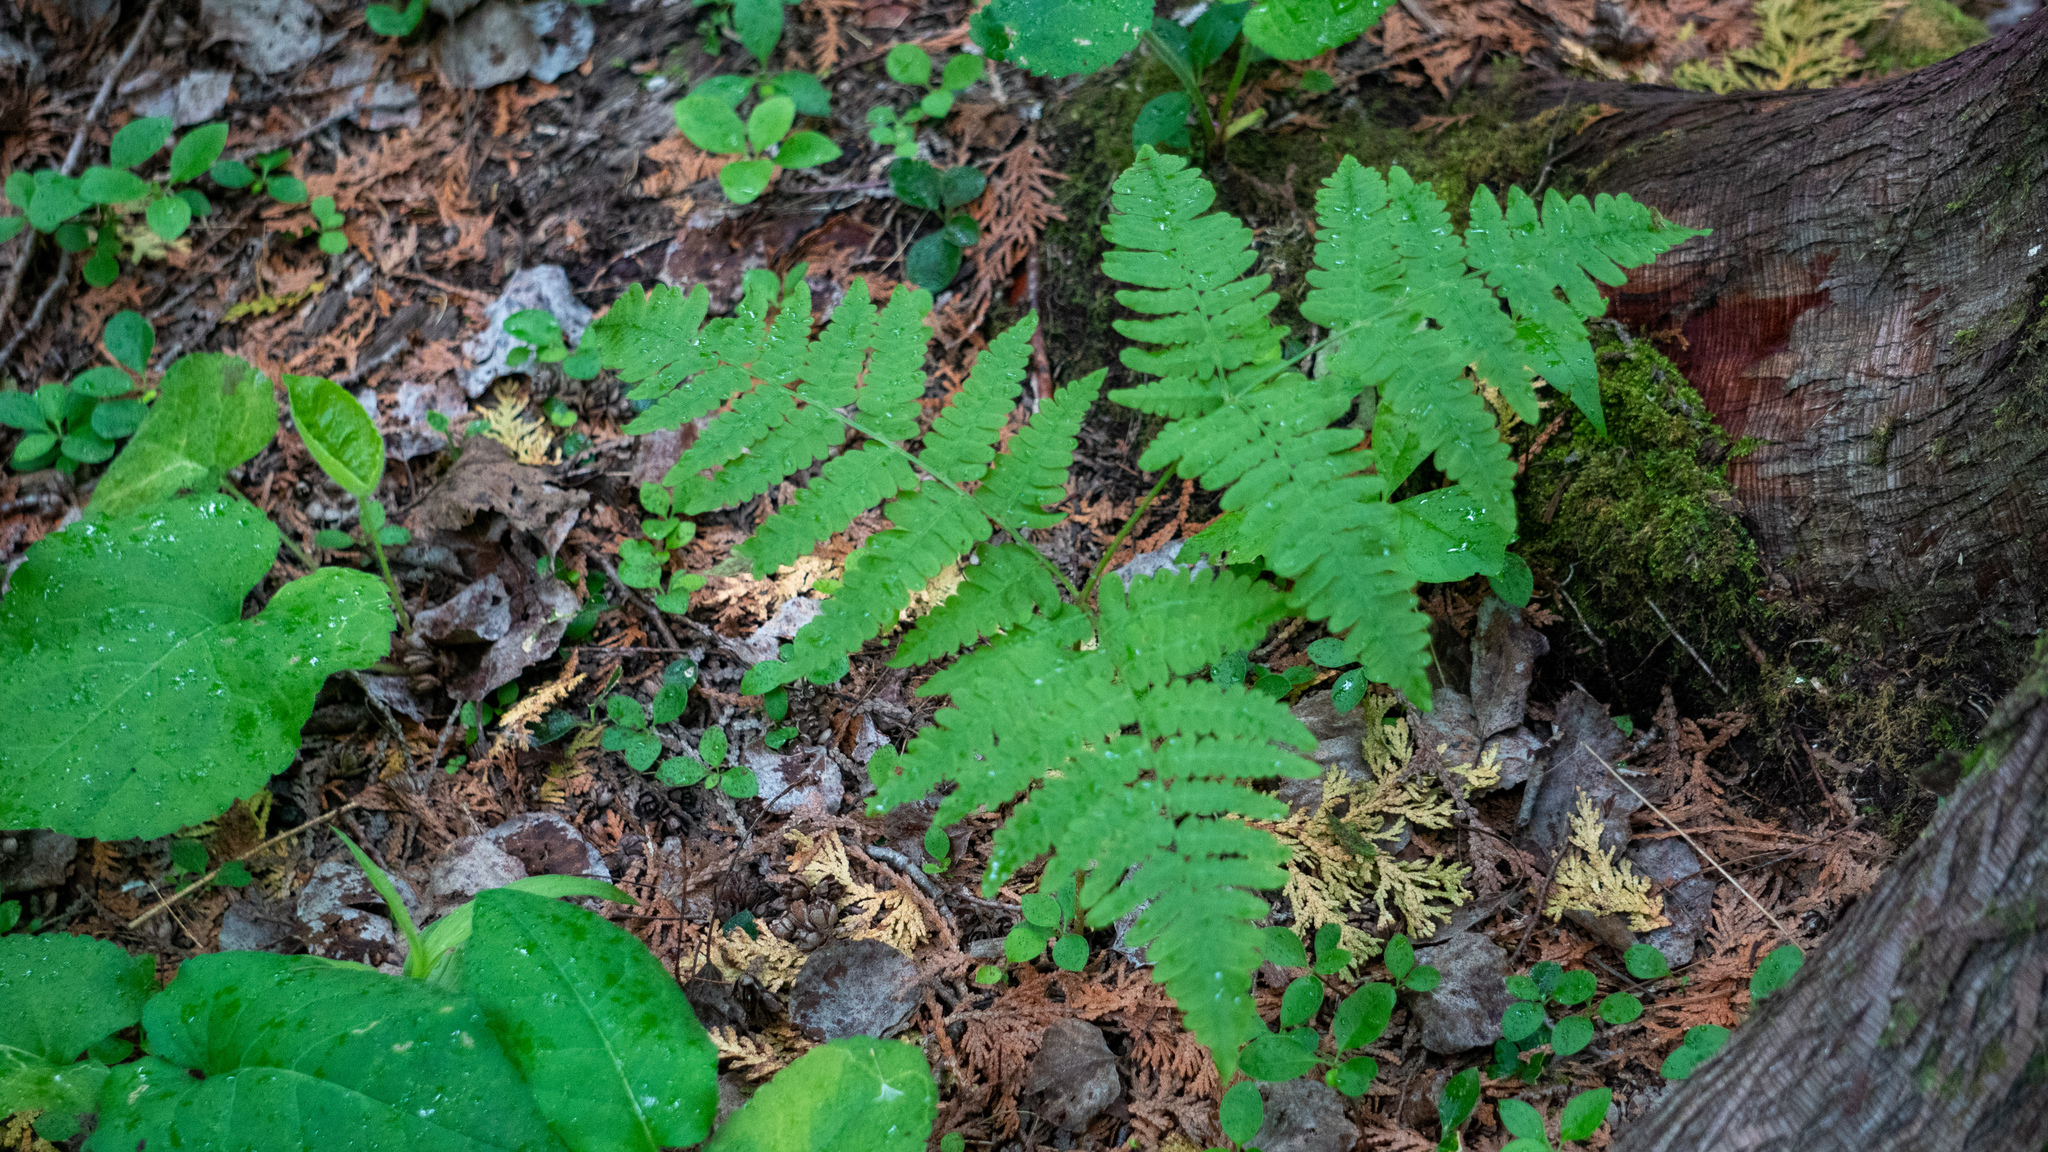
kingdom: Plantae
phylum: Tracheophyta
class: Polypodiopsida
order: Polypodiales
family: Dennstaedtiaceae
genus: Pteridium
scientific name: Pteridium aquilinum
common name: Bracken
